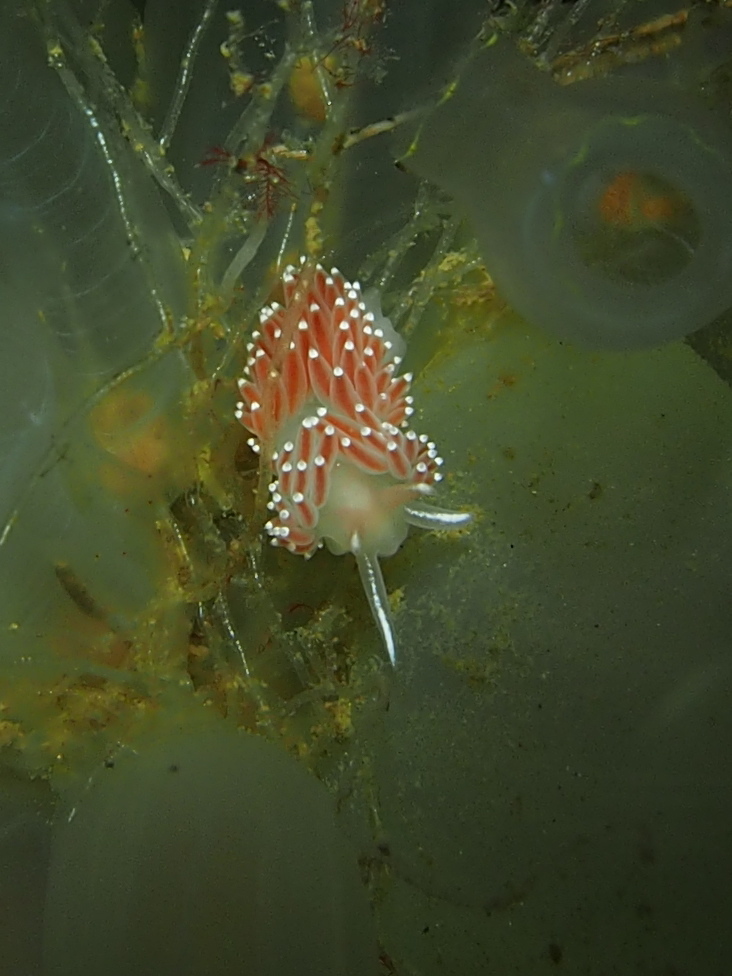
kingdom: Animalia
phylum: Mollusca
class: Gastropoda
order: Nudibranchia
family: Coryphellidae
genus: Coryphella
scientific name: Coryphella verrucosa
